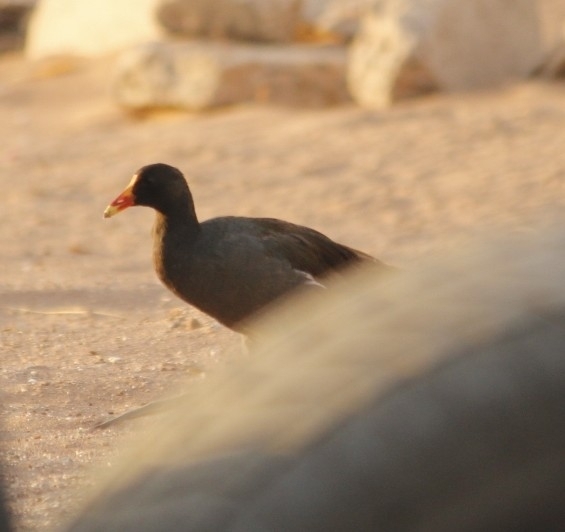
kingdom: Animalia
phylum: Chordata
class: Aves
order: Gruiformes
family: Rallidae
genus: Gallinula
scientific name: Gallinula chloropus
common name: Common moorhen
